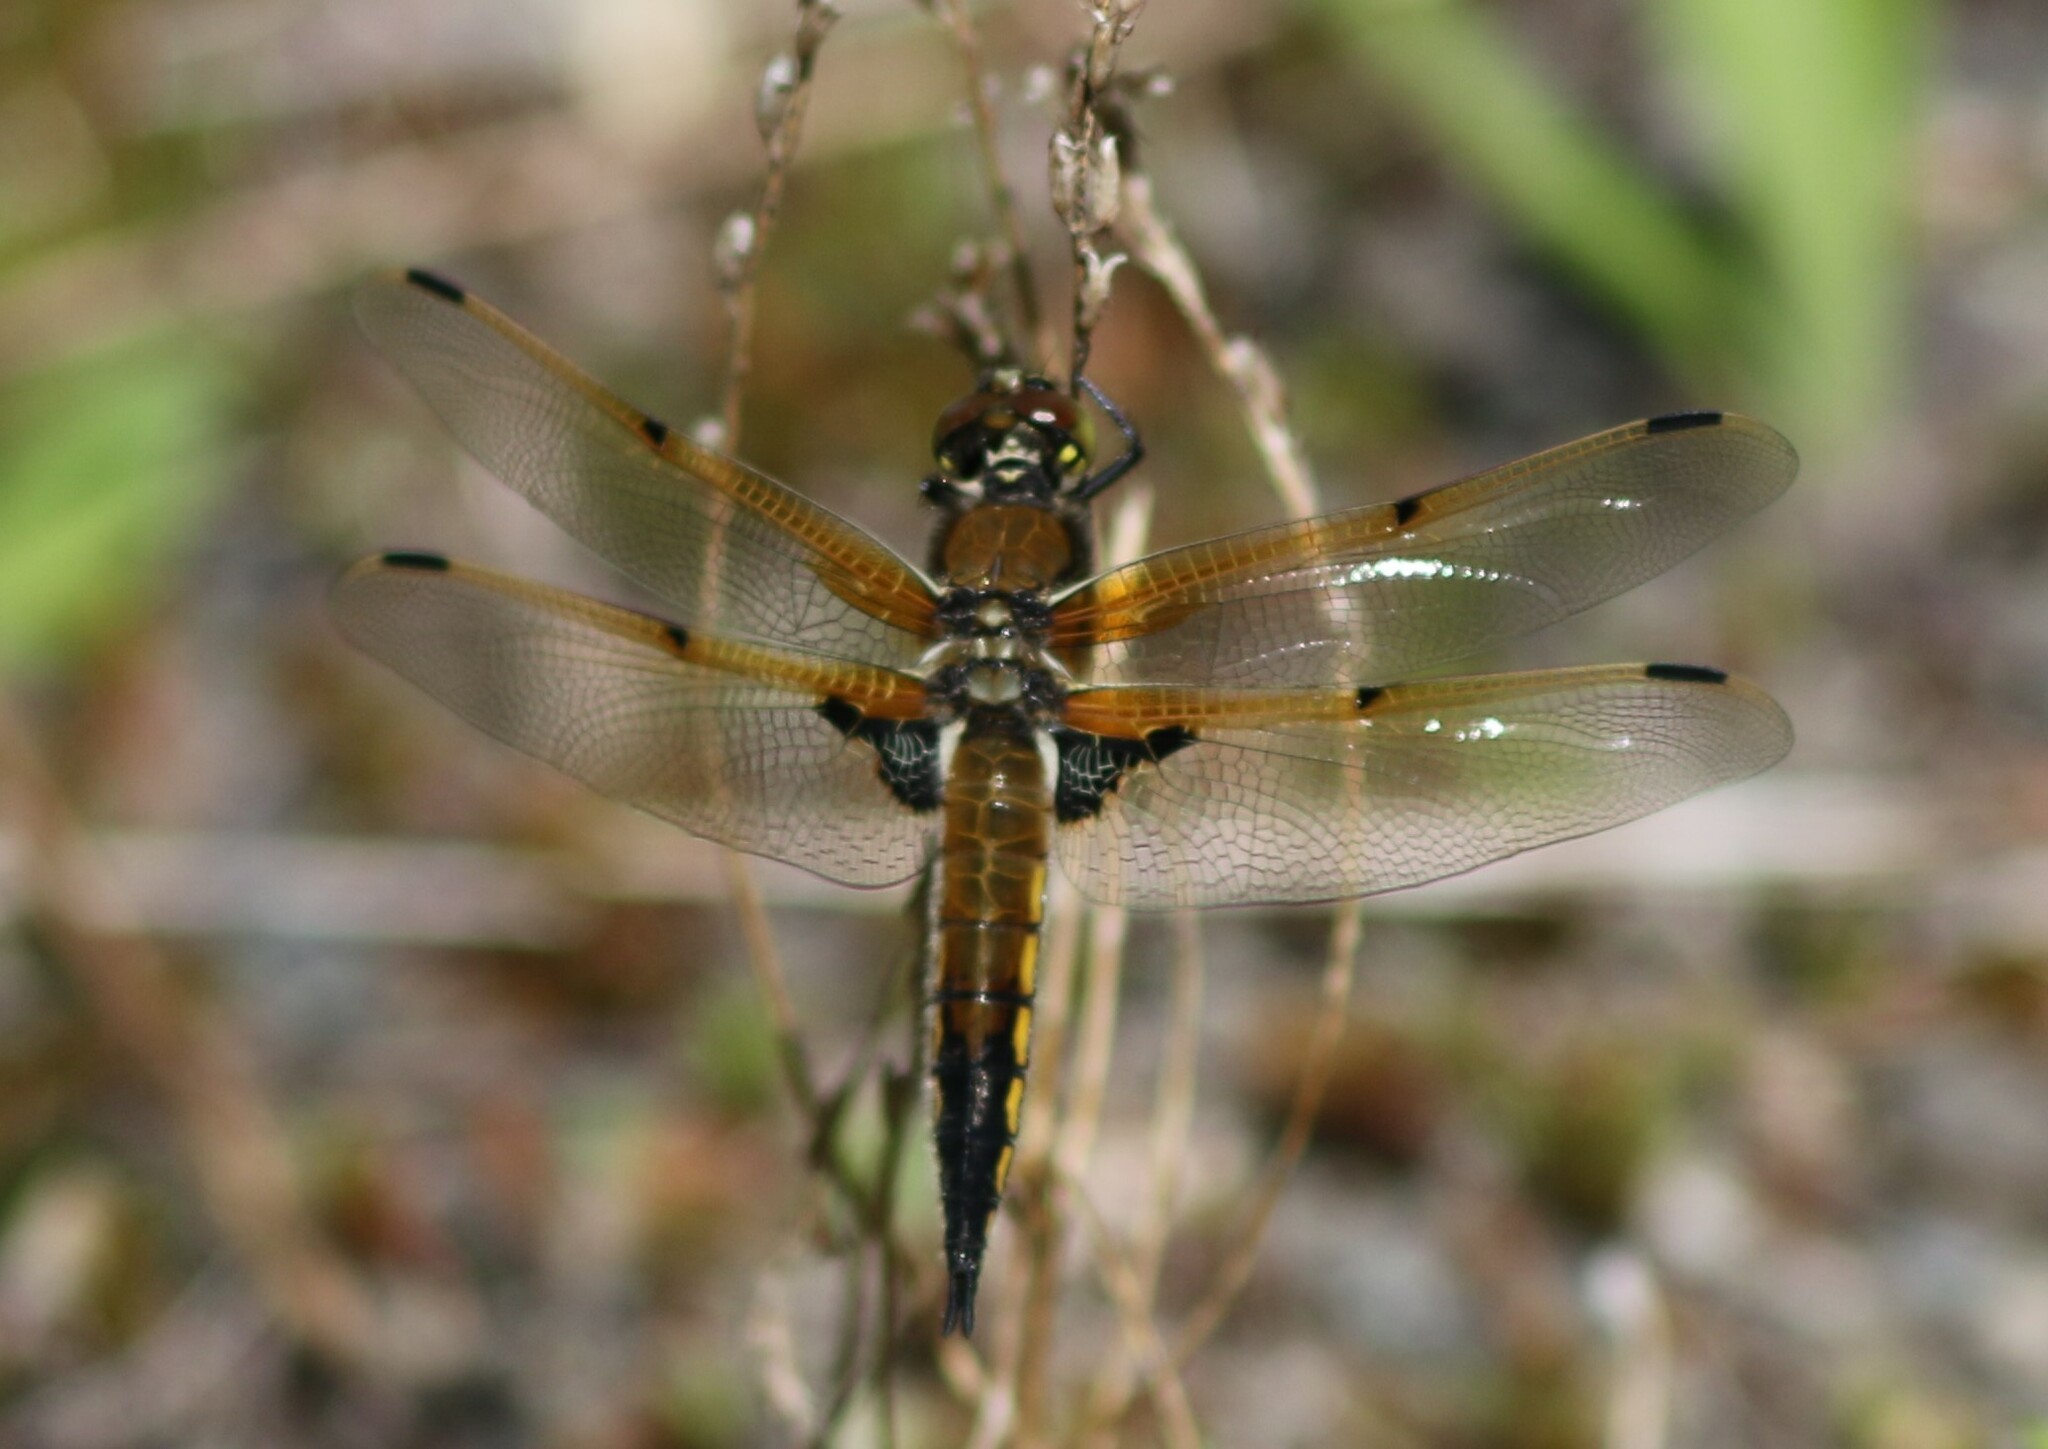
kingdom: Animalia
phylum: Arthropoda
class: Insecta
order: Odonata
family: Libellulidae
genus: Libellula
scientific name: Libellula quadrimaculata
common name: Four-spotted chaser
